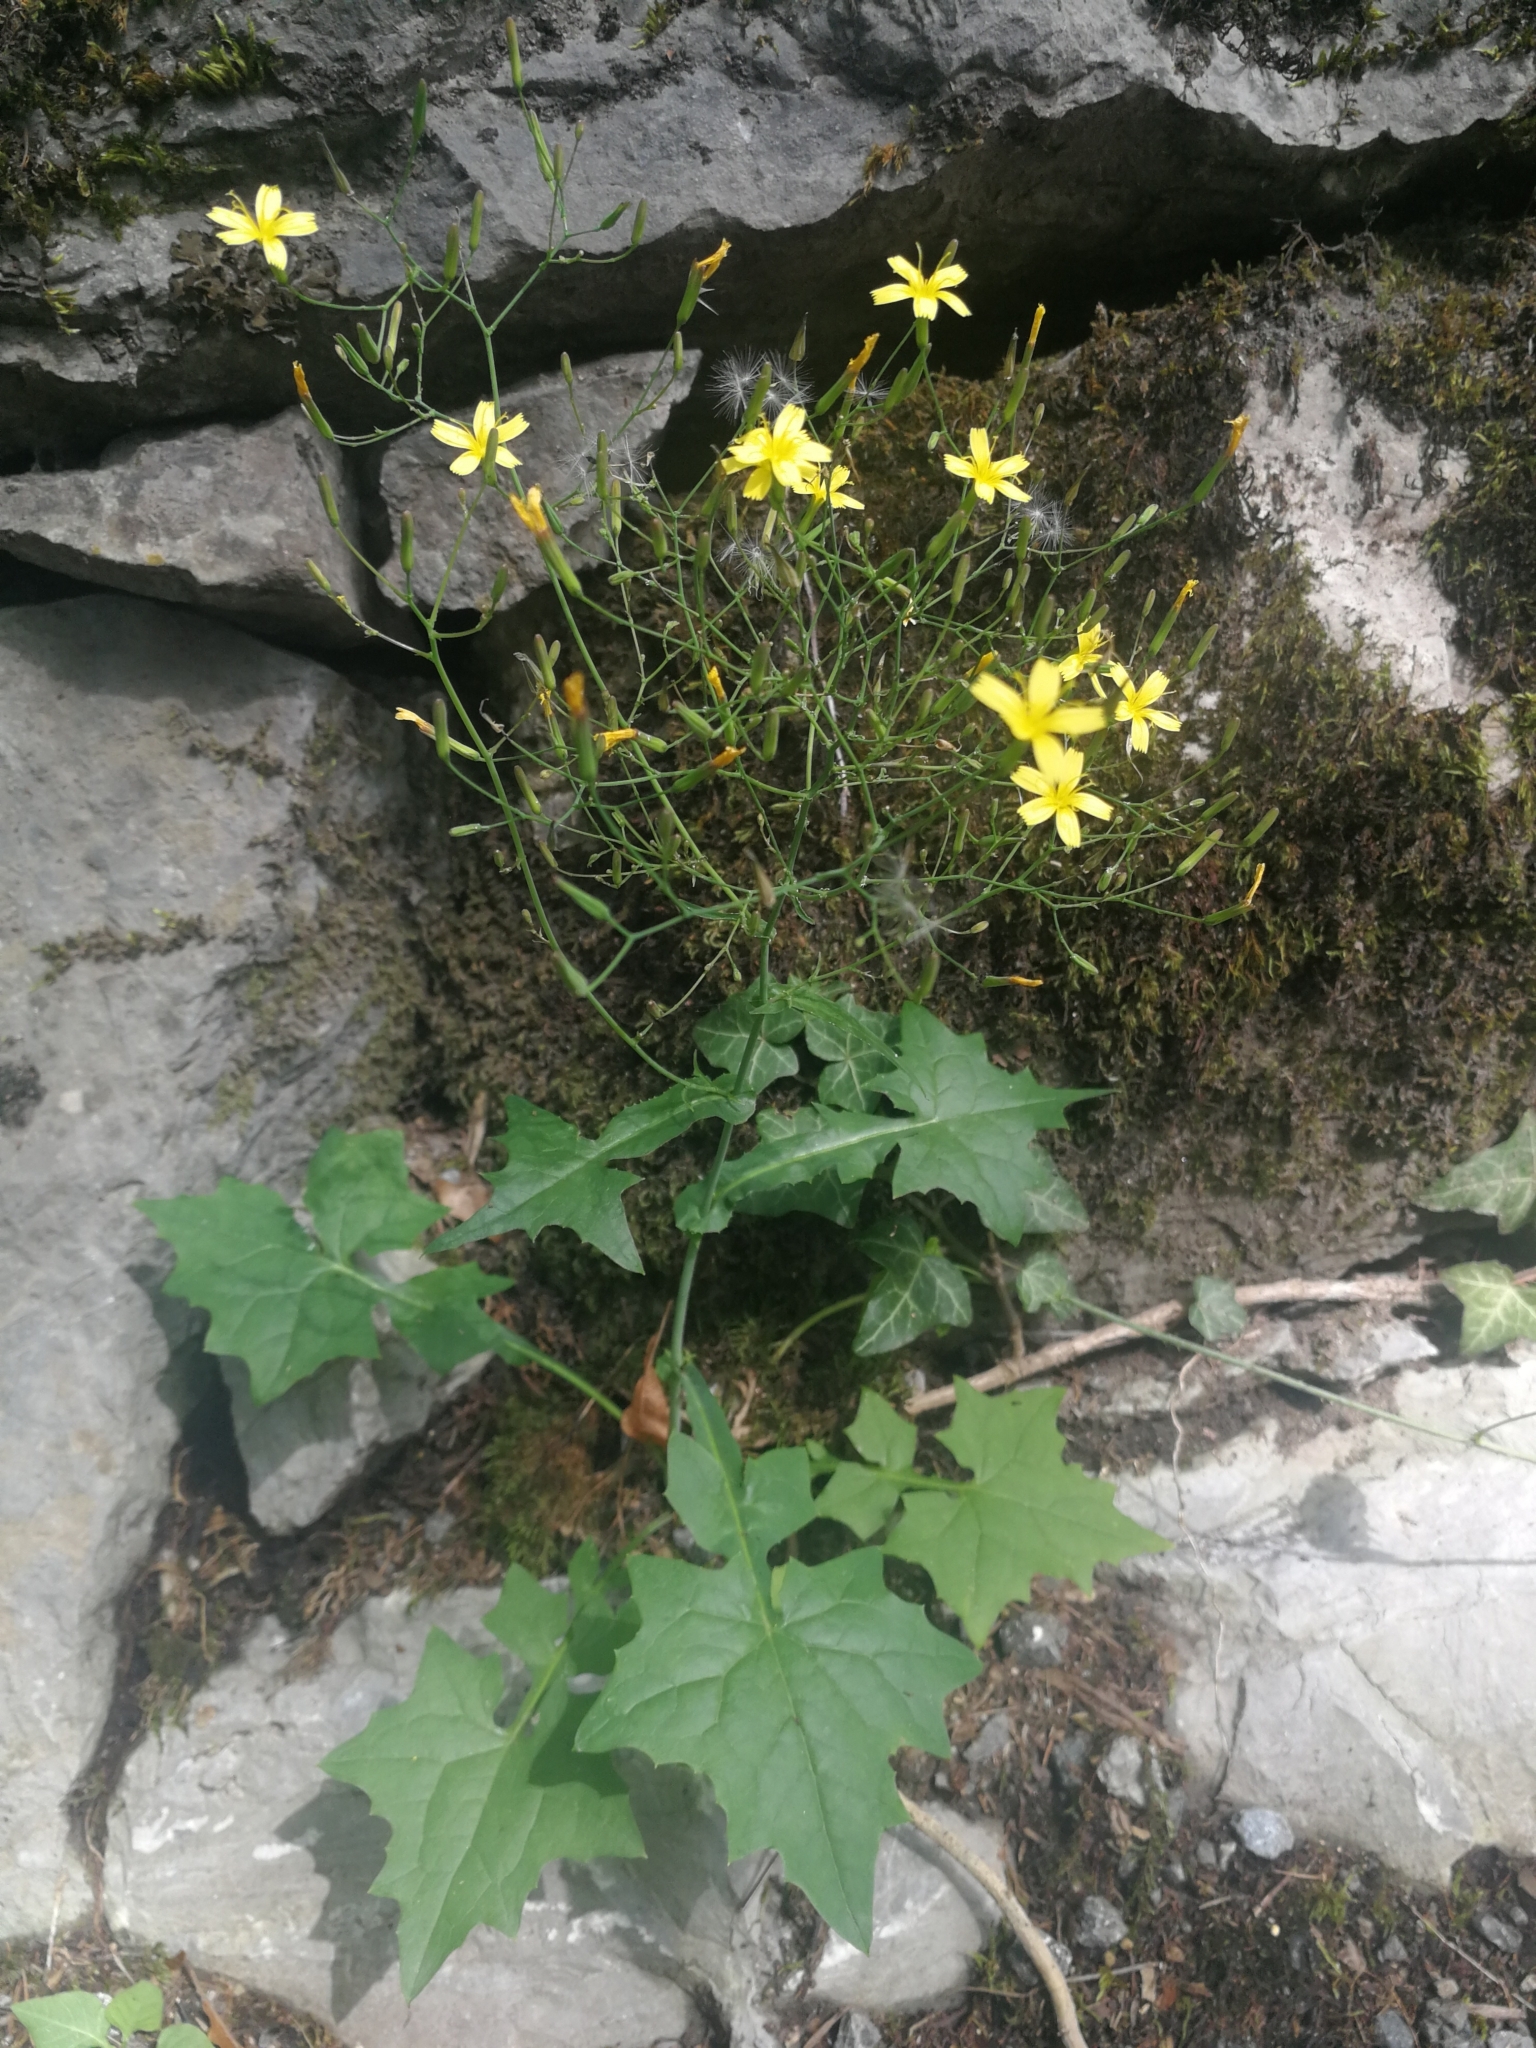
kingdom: Plantae
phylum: Tracheophyta
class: Magnoliopsida
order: Asterales
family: Asteraceae
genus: Mycelis
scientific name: Mycelis muralis
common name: Wall lettuce
